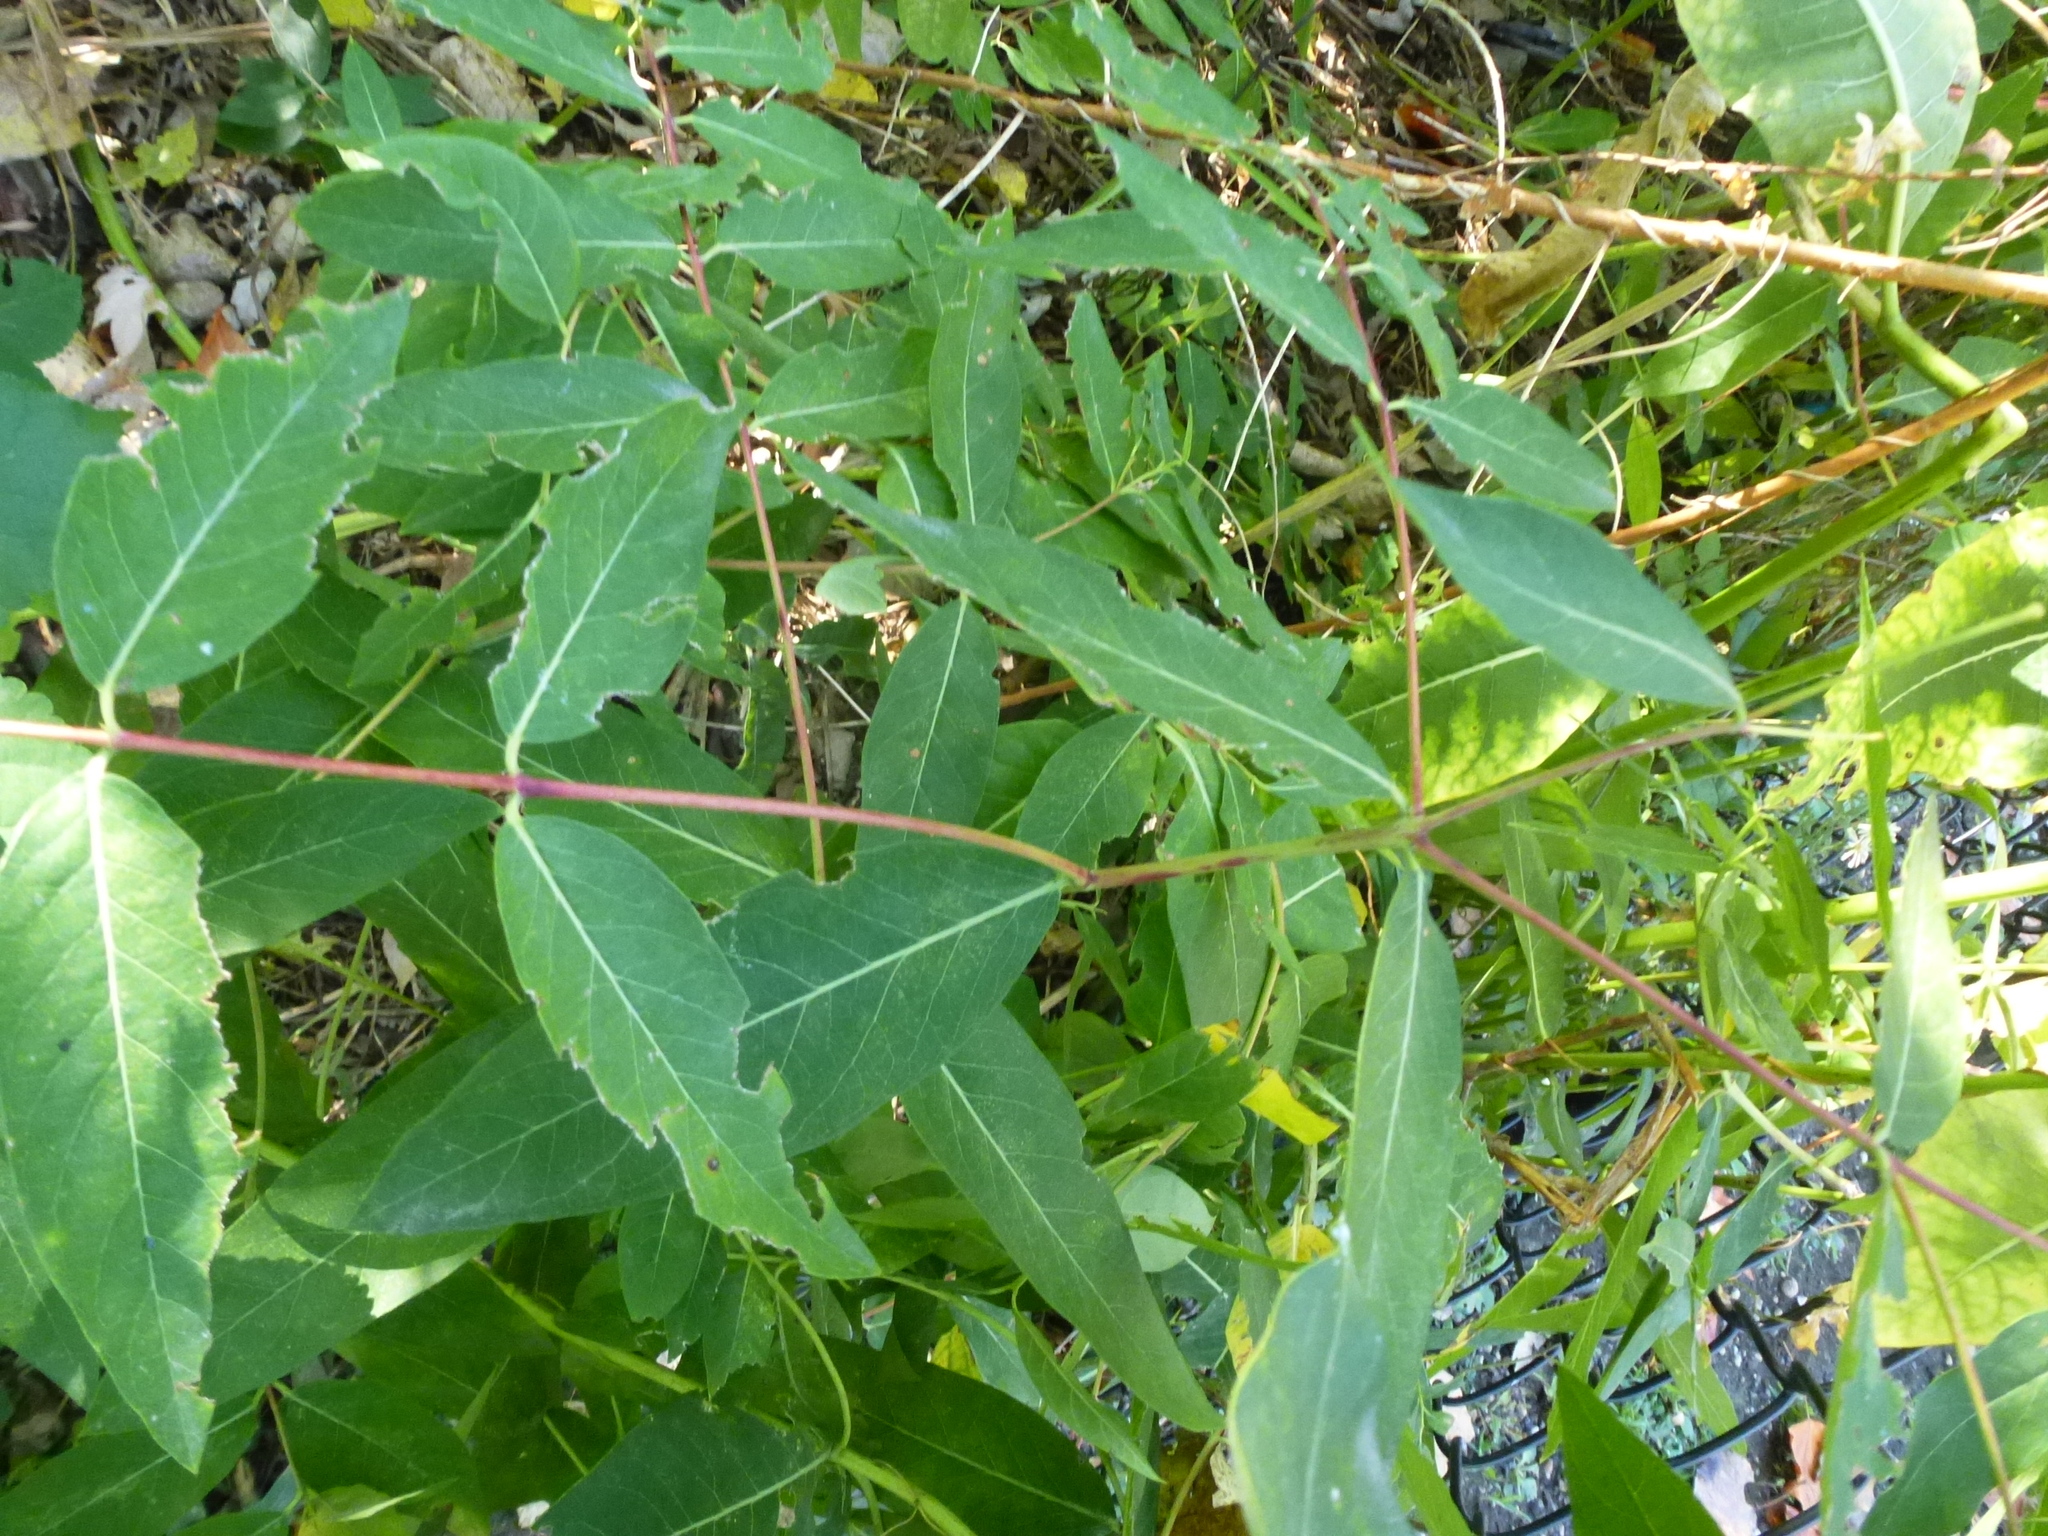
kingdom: Plantae
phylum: Tracheophyta
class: Magnoliopsida
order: Gentianales
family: Apocynaceae
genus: Apocynum
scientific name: Apocynum cannabinum
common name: Hemp dogbane
